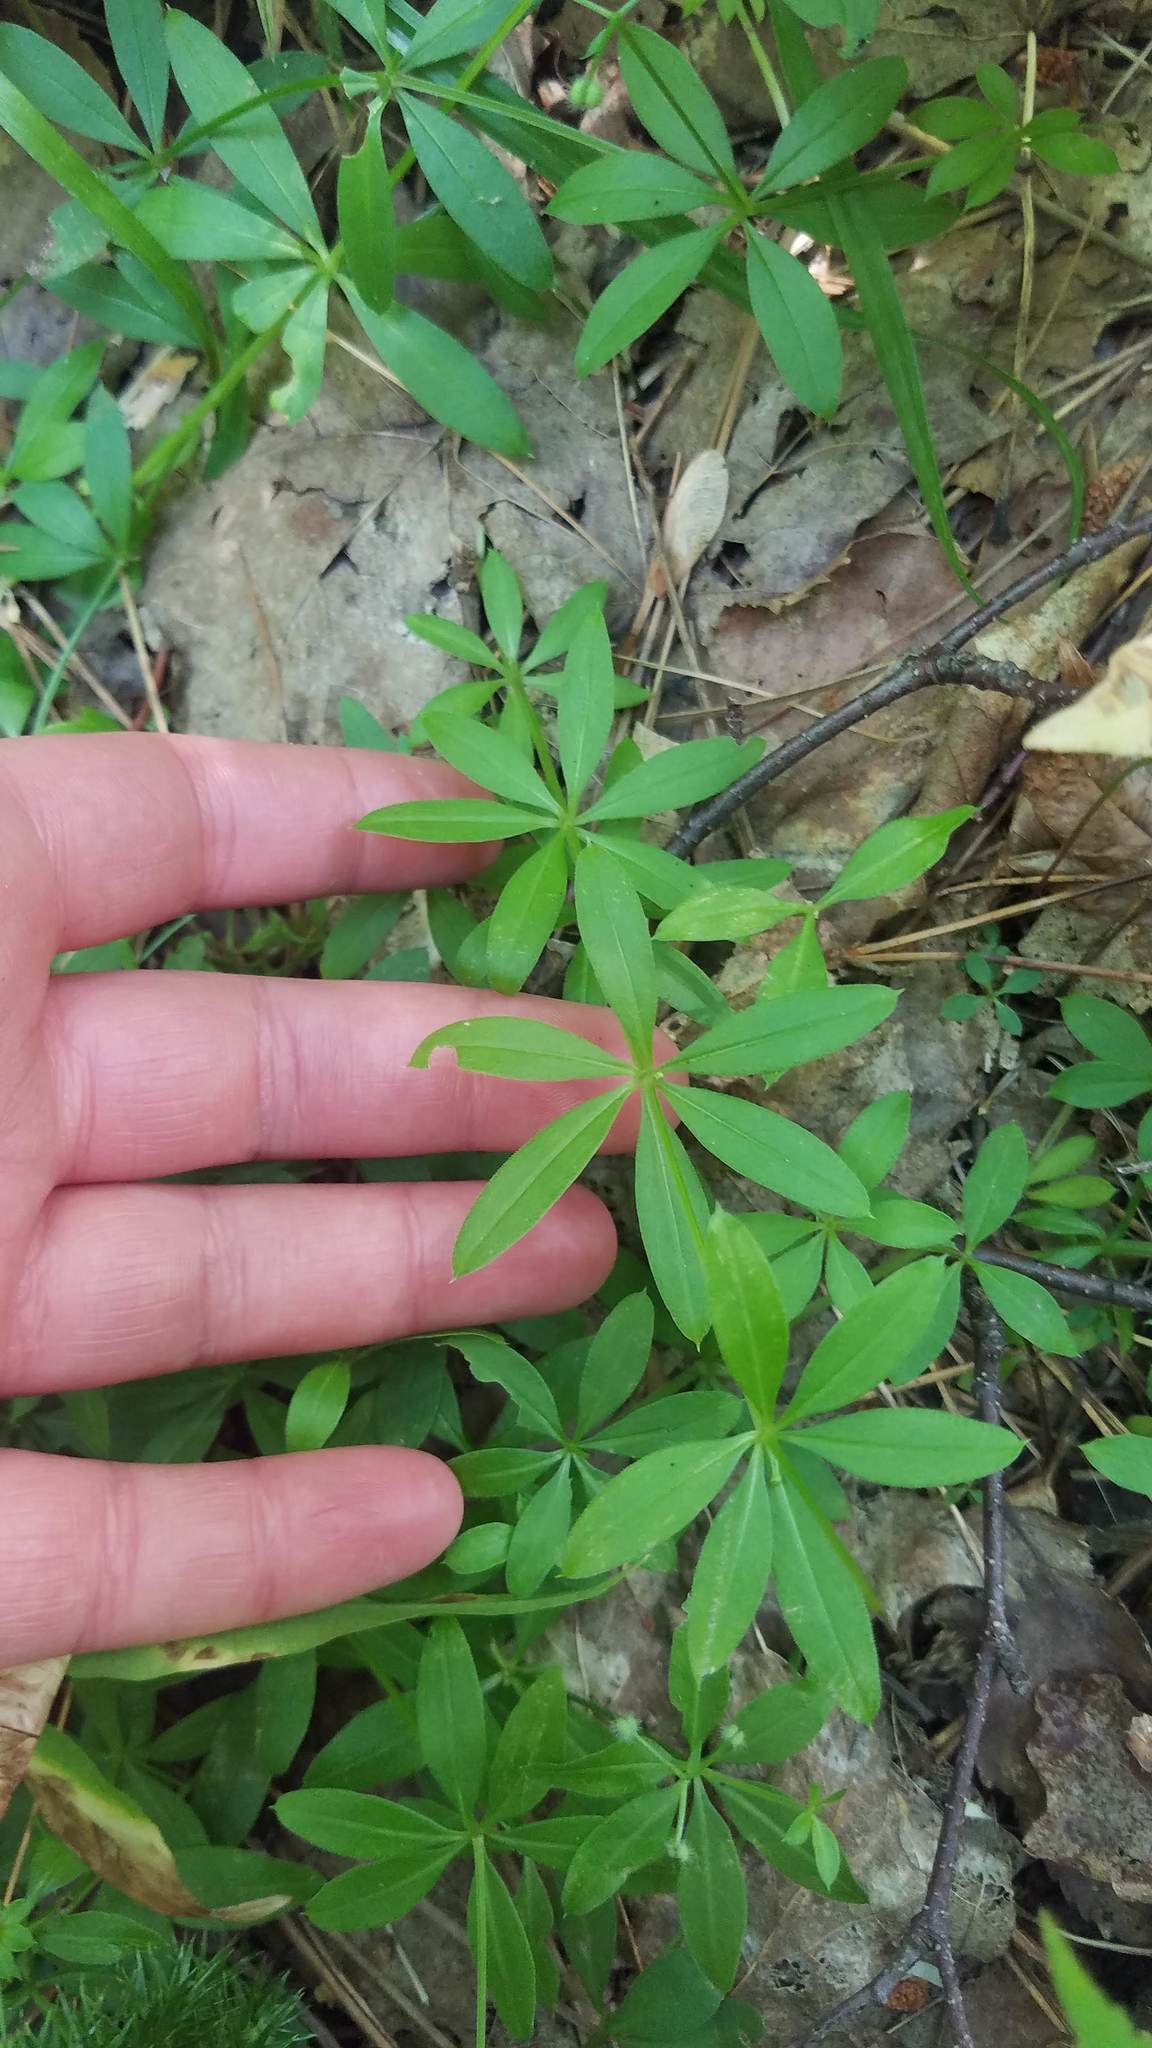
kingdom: Plantae
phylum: Tracheophyta
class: Magnoliopsida
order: Gentianales
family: Rubiaceae
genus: Galium
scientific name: Galium triflorum
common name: Fragrant bedstraw
